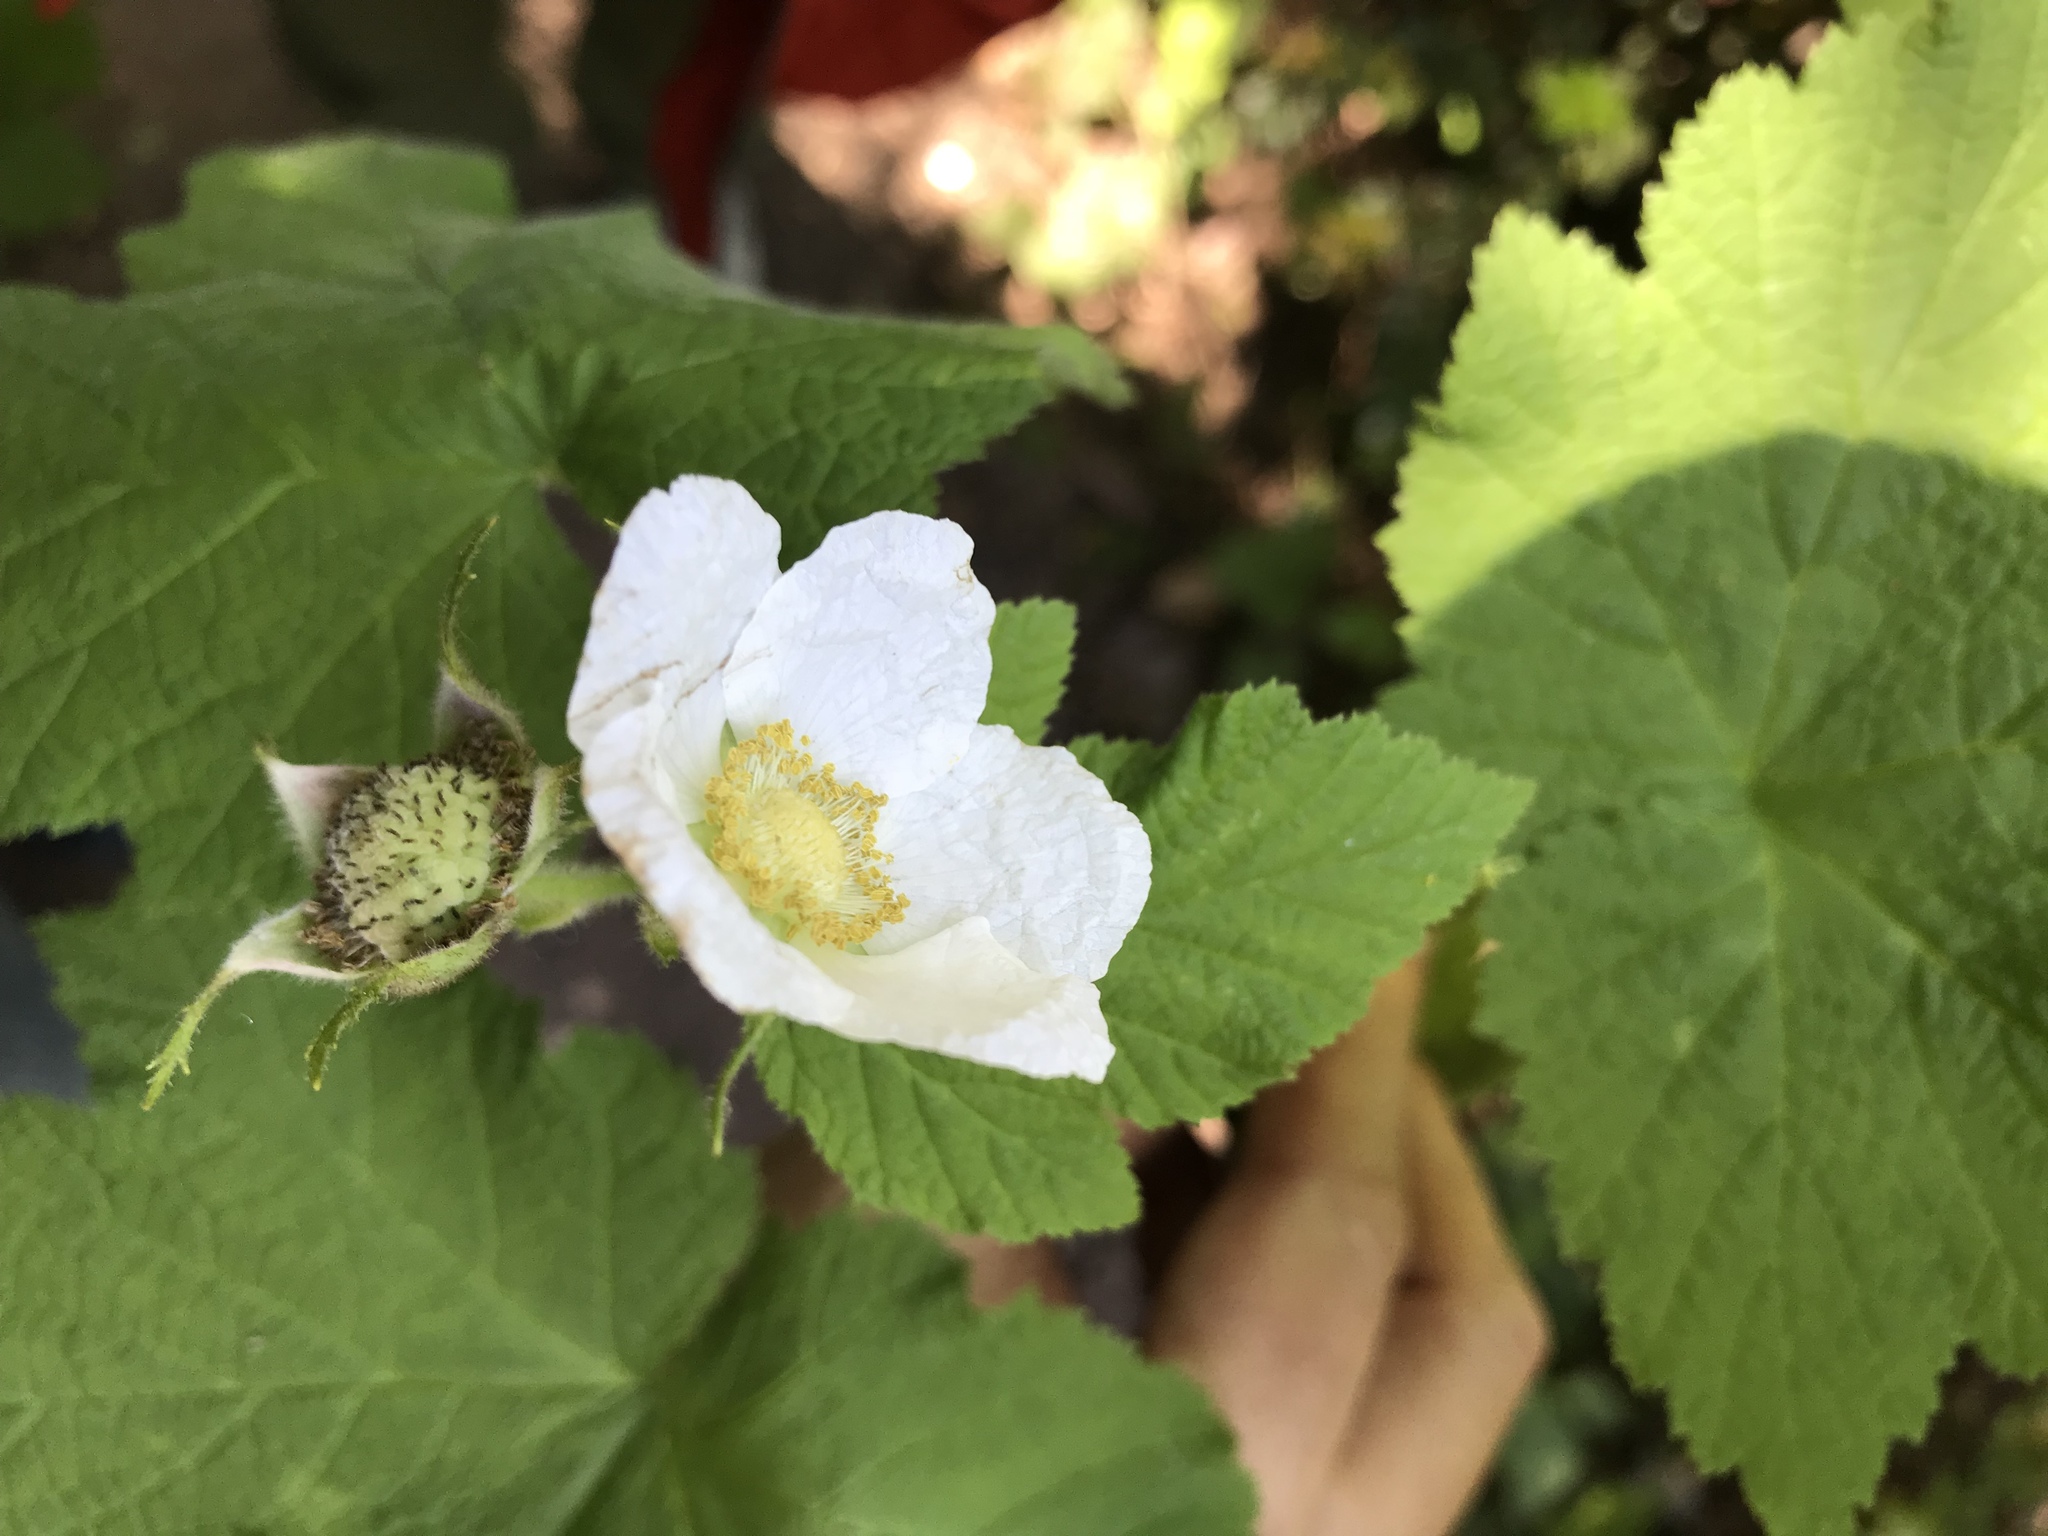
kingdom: Plantae
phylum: Tracheophyta
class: Magnoliopsida
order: Rosales
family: Rosaceae
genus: Rubus
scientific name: Rubus parviflorus
